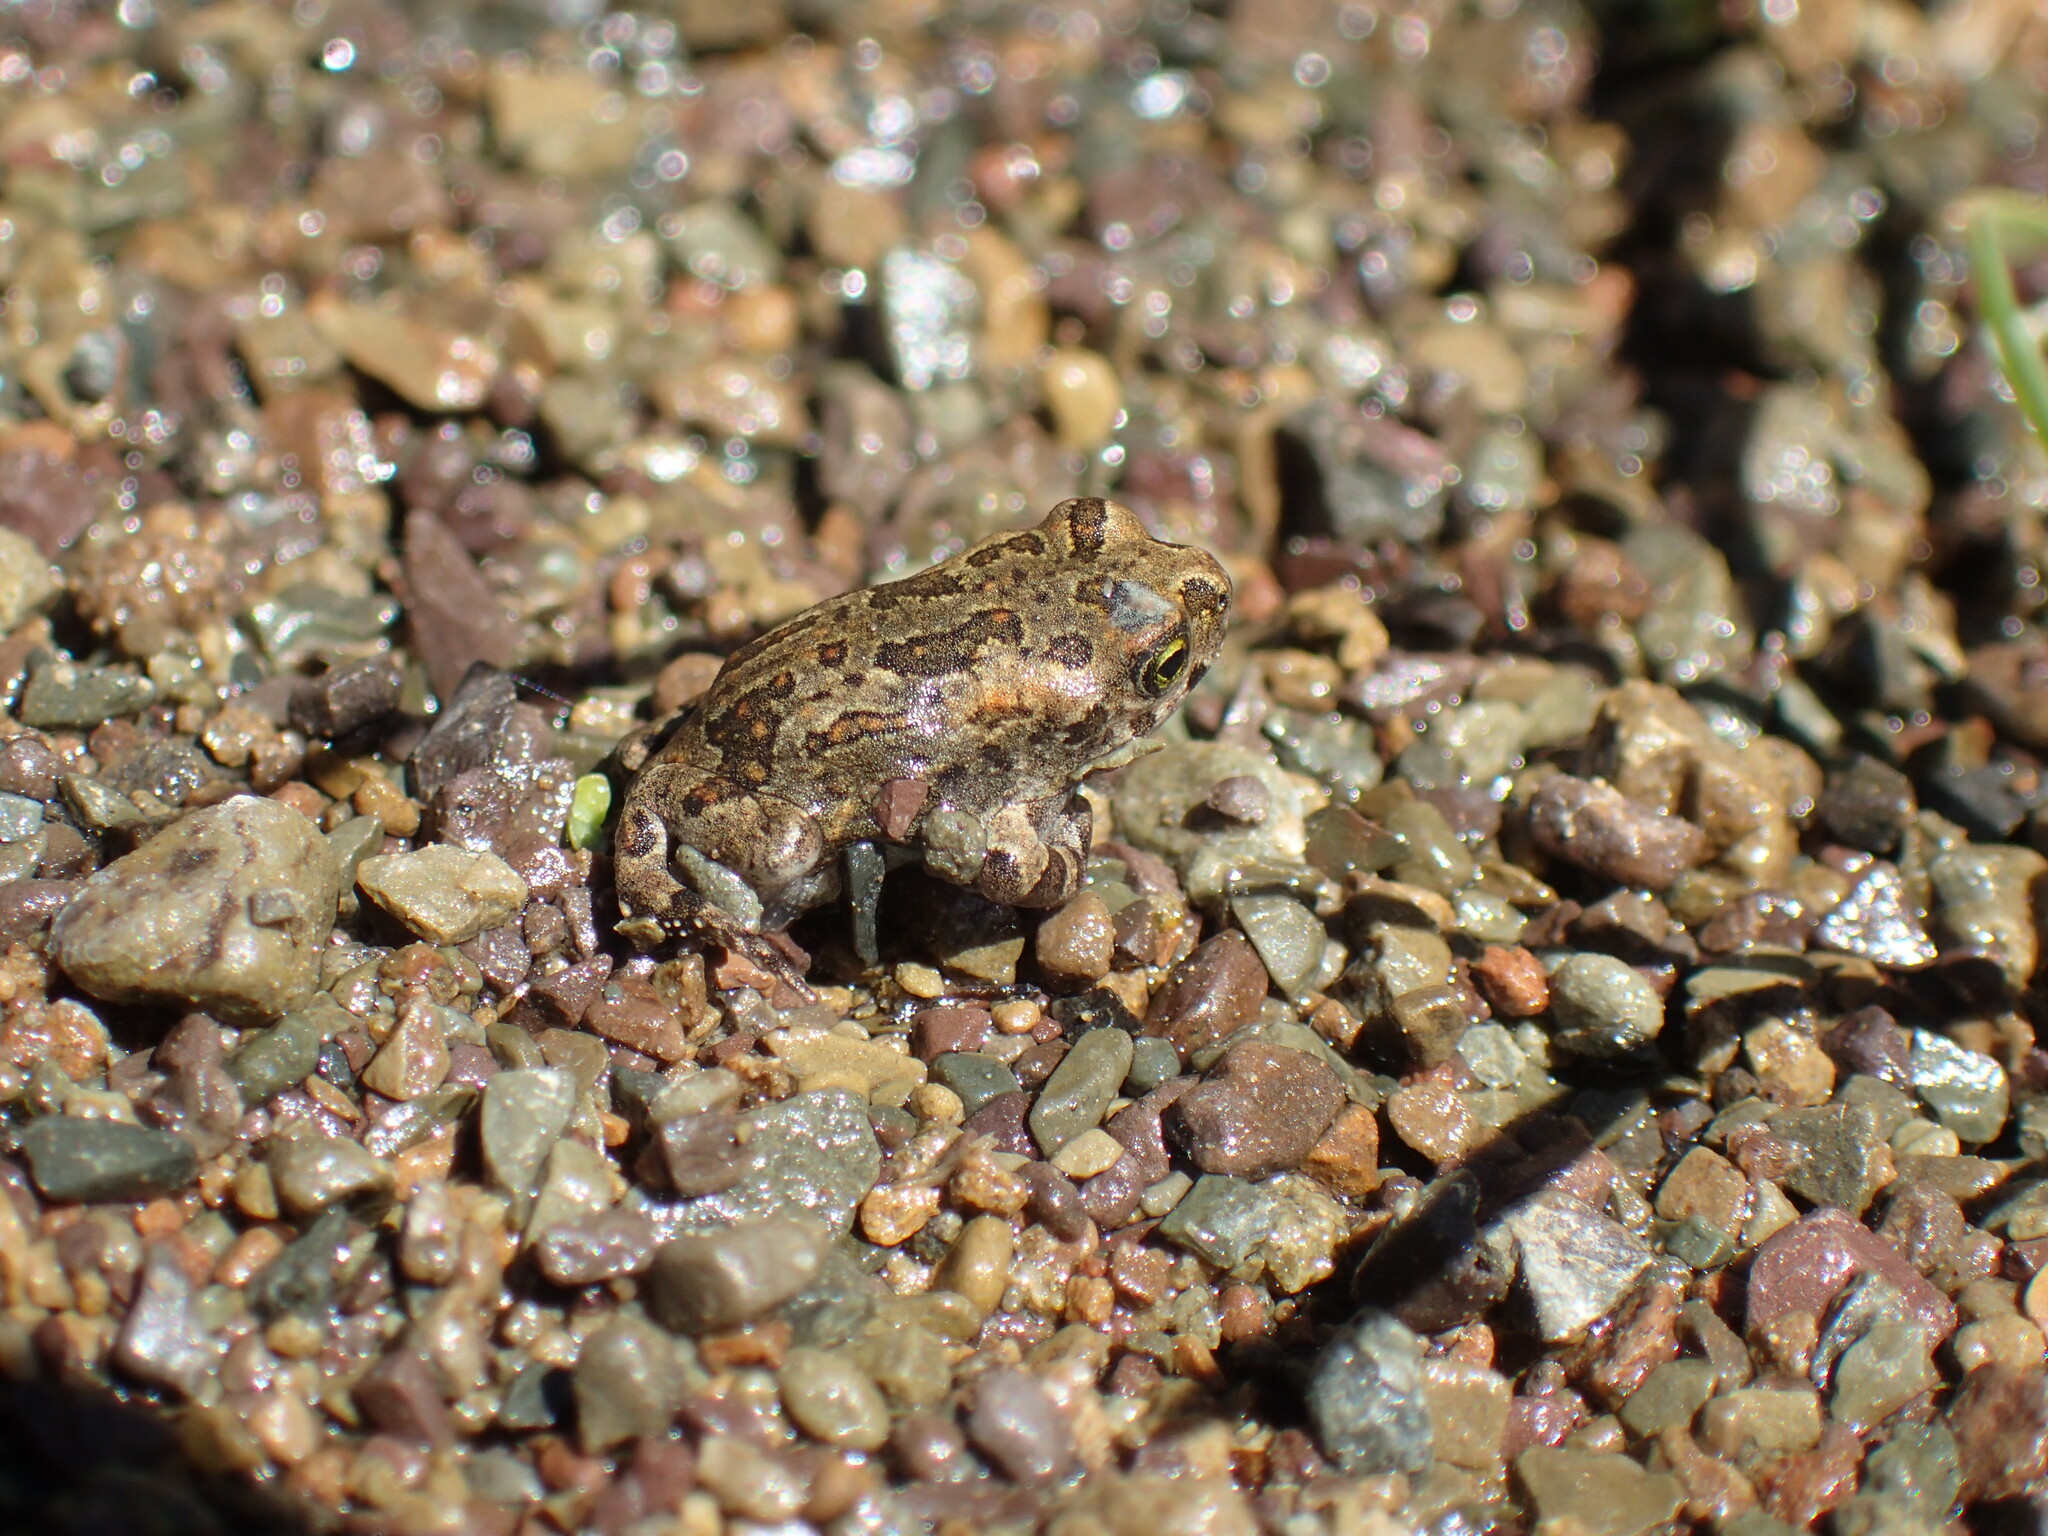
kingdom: Animalia
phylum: Chordata
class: Amphibia
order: Anura
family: Bufonidae
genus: Vandijkophrynus
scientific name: Vandijkophrynus gariepensis
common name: Gariep toad
